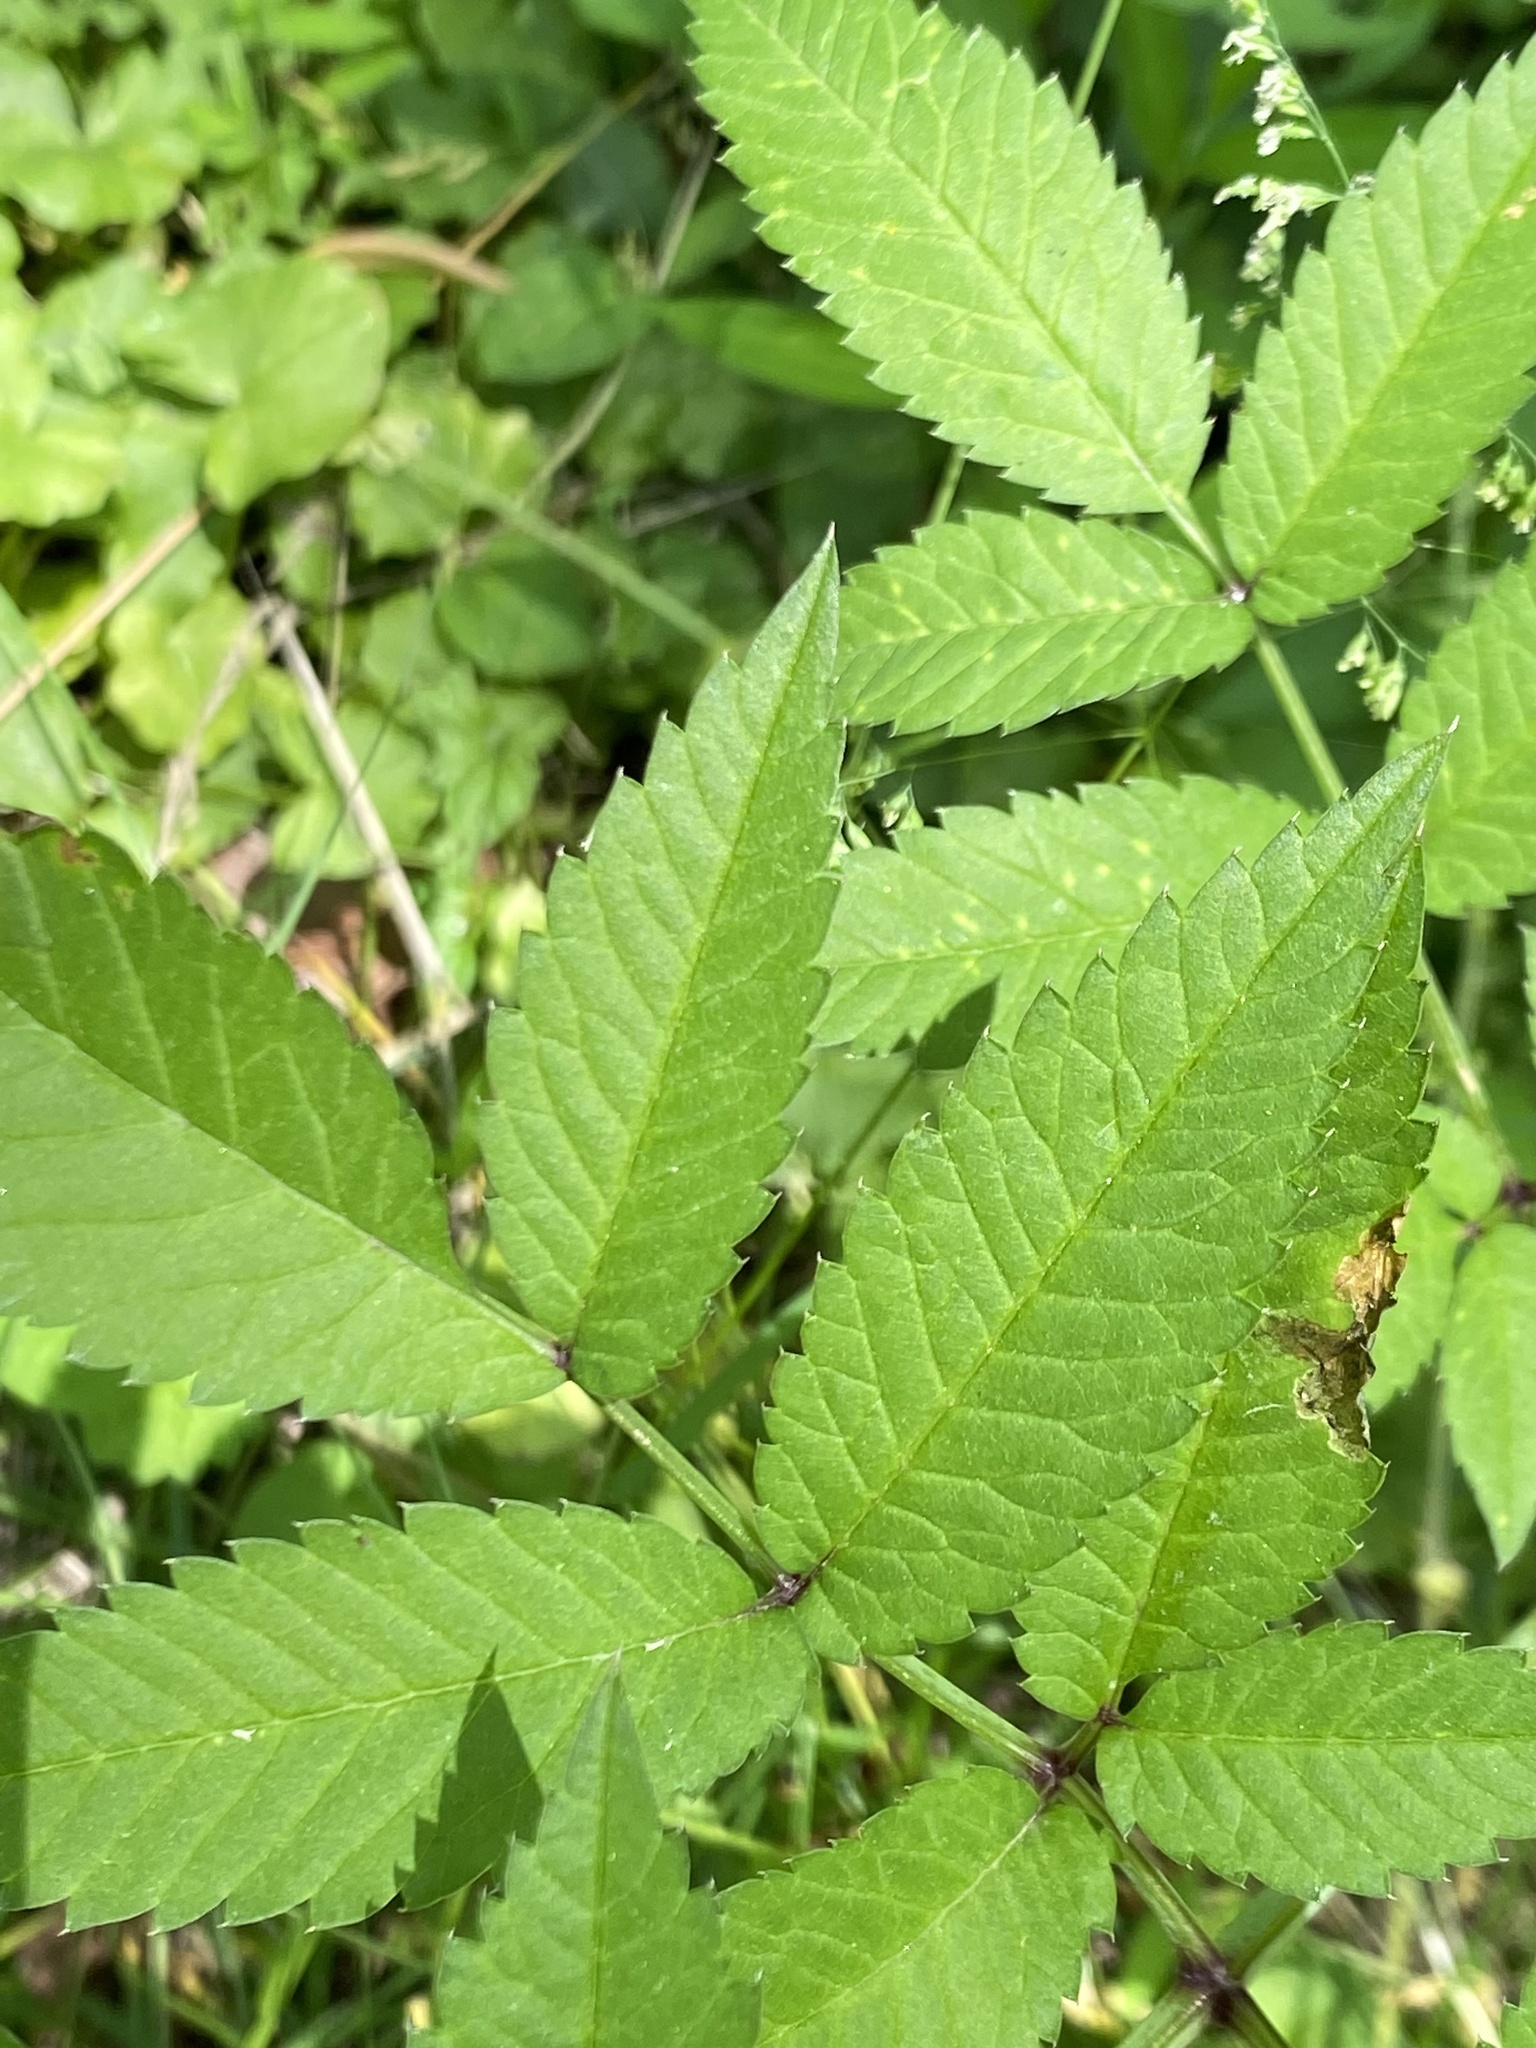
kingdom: Plantae
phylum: Tracheophyta
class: Magnoliopsida
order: Apiales
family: Apiaceae
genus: Cicuta
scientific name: Cicuta maculata
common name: Spotted cowbane
